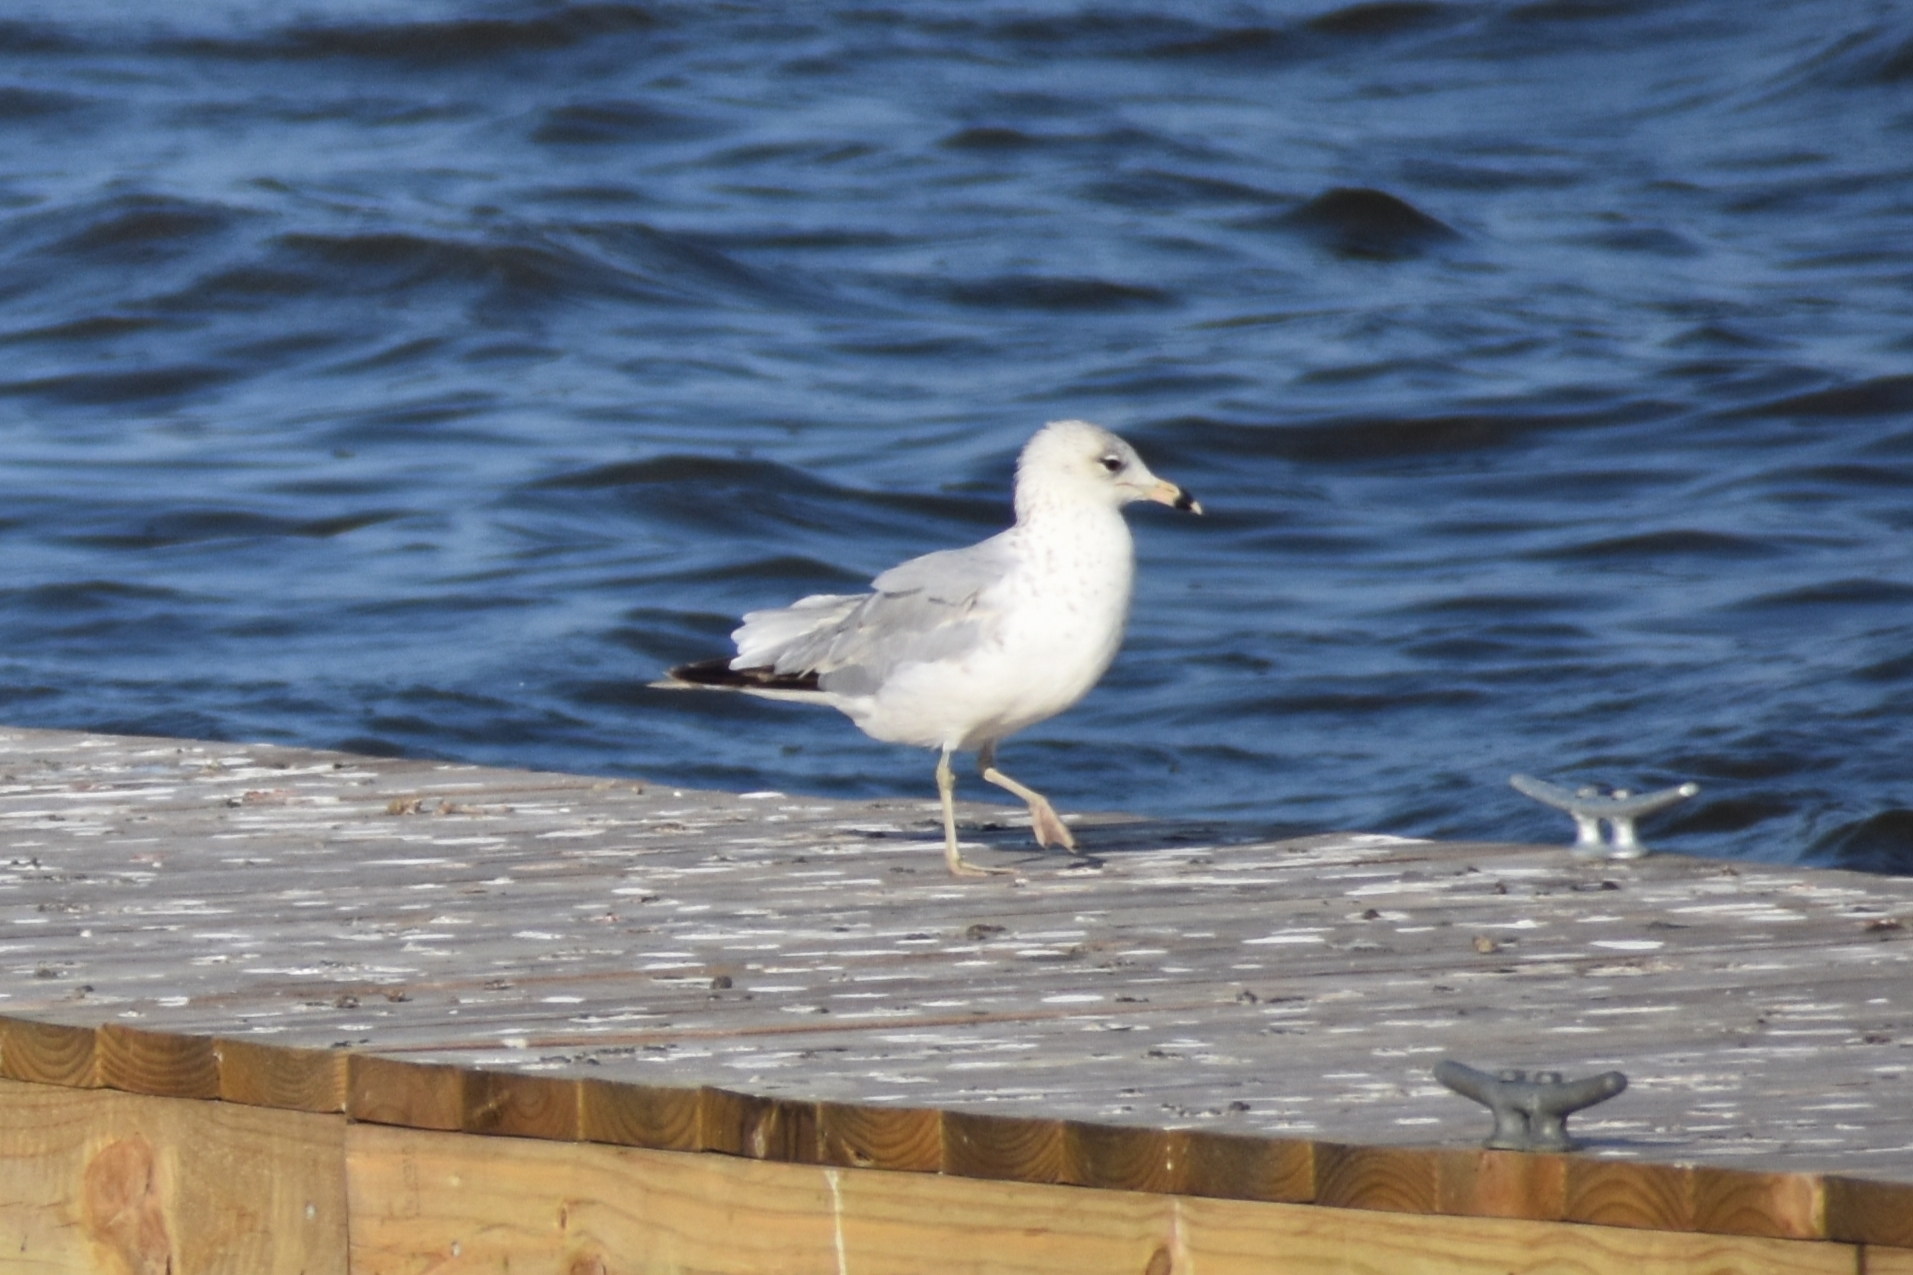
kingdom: Animalia
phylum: Chordata
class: Aves
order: Charadriiformes
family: Laridae
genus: Larus
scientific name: Larus delawarensis
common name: Ring-billed gull
